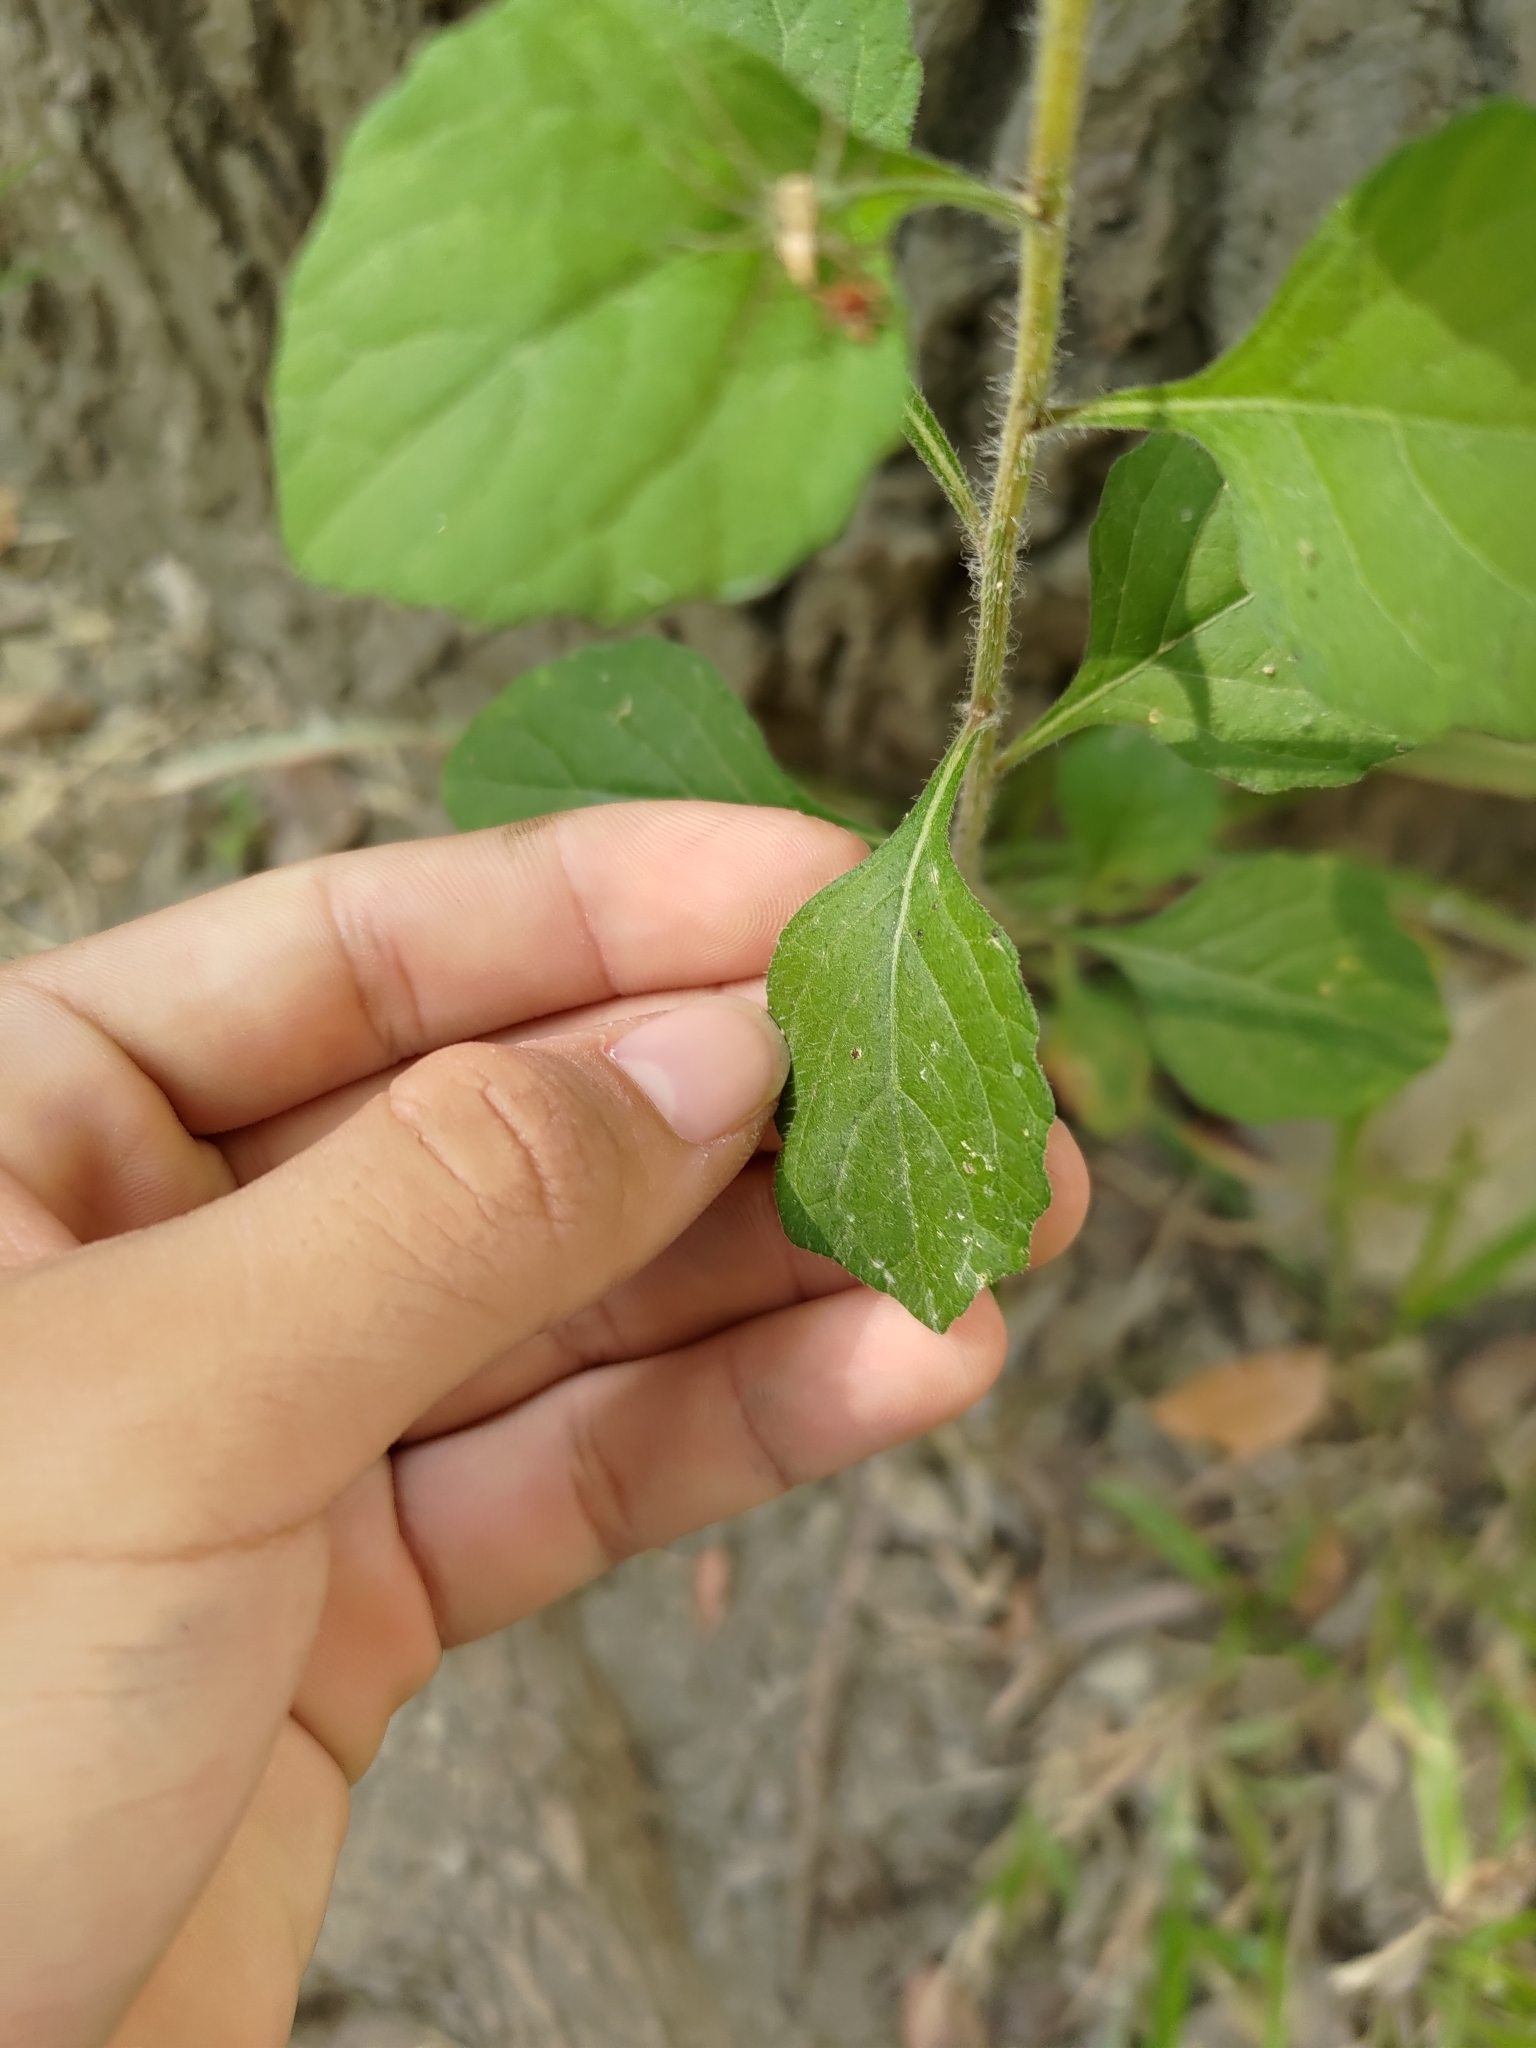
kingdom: Plantae
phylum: Tracheophyta
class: Magnoliopsida
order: Asterales
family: Asteraceae
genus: Cyanthillium
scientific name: Cyanthillium cinereum
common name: Little ironweed
